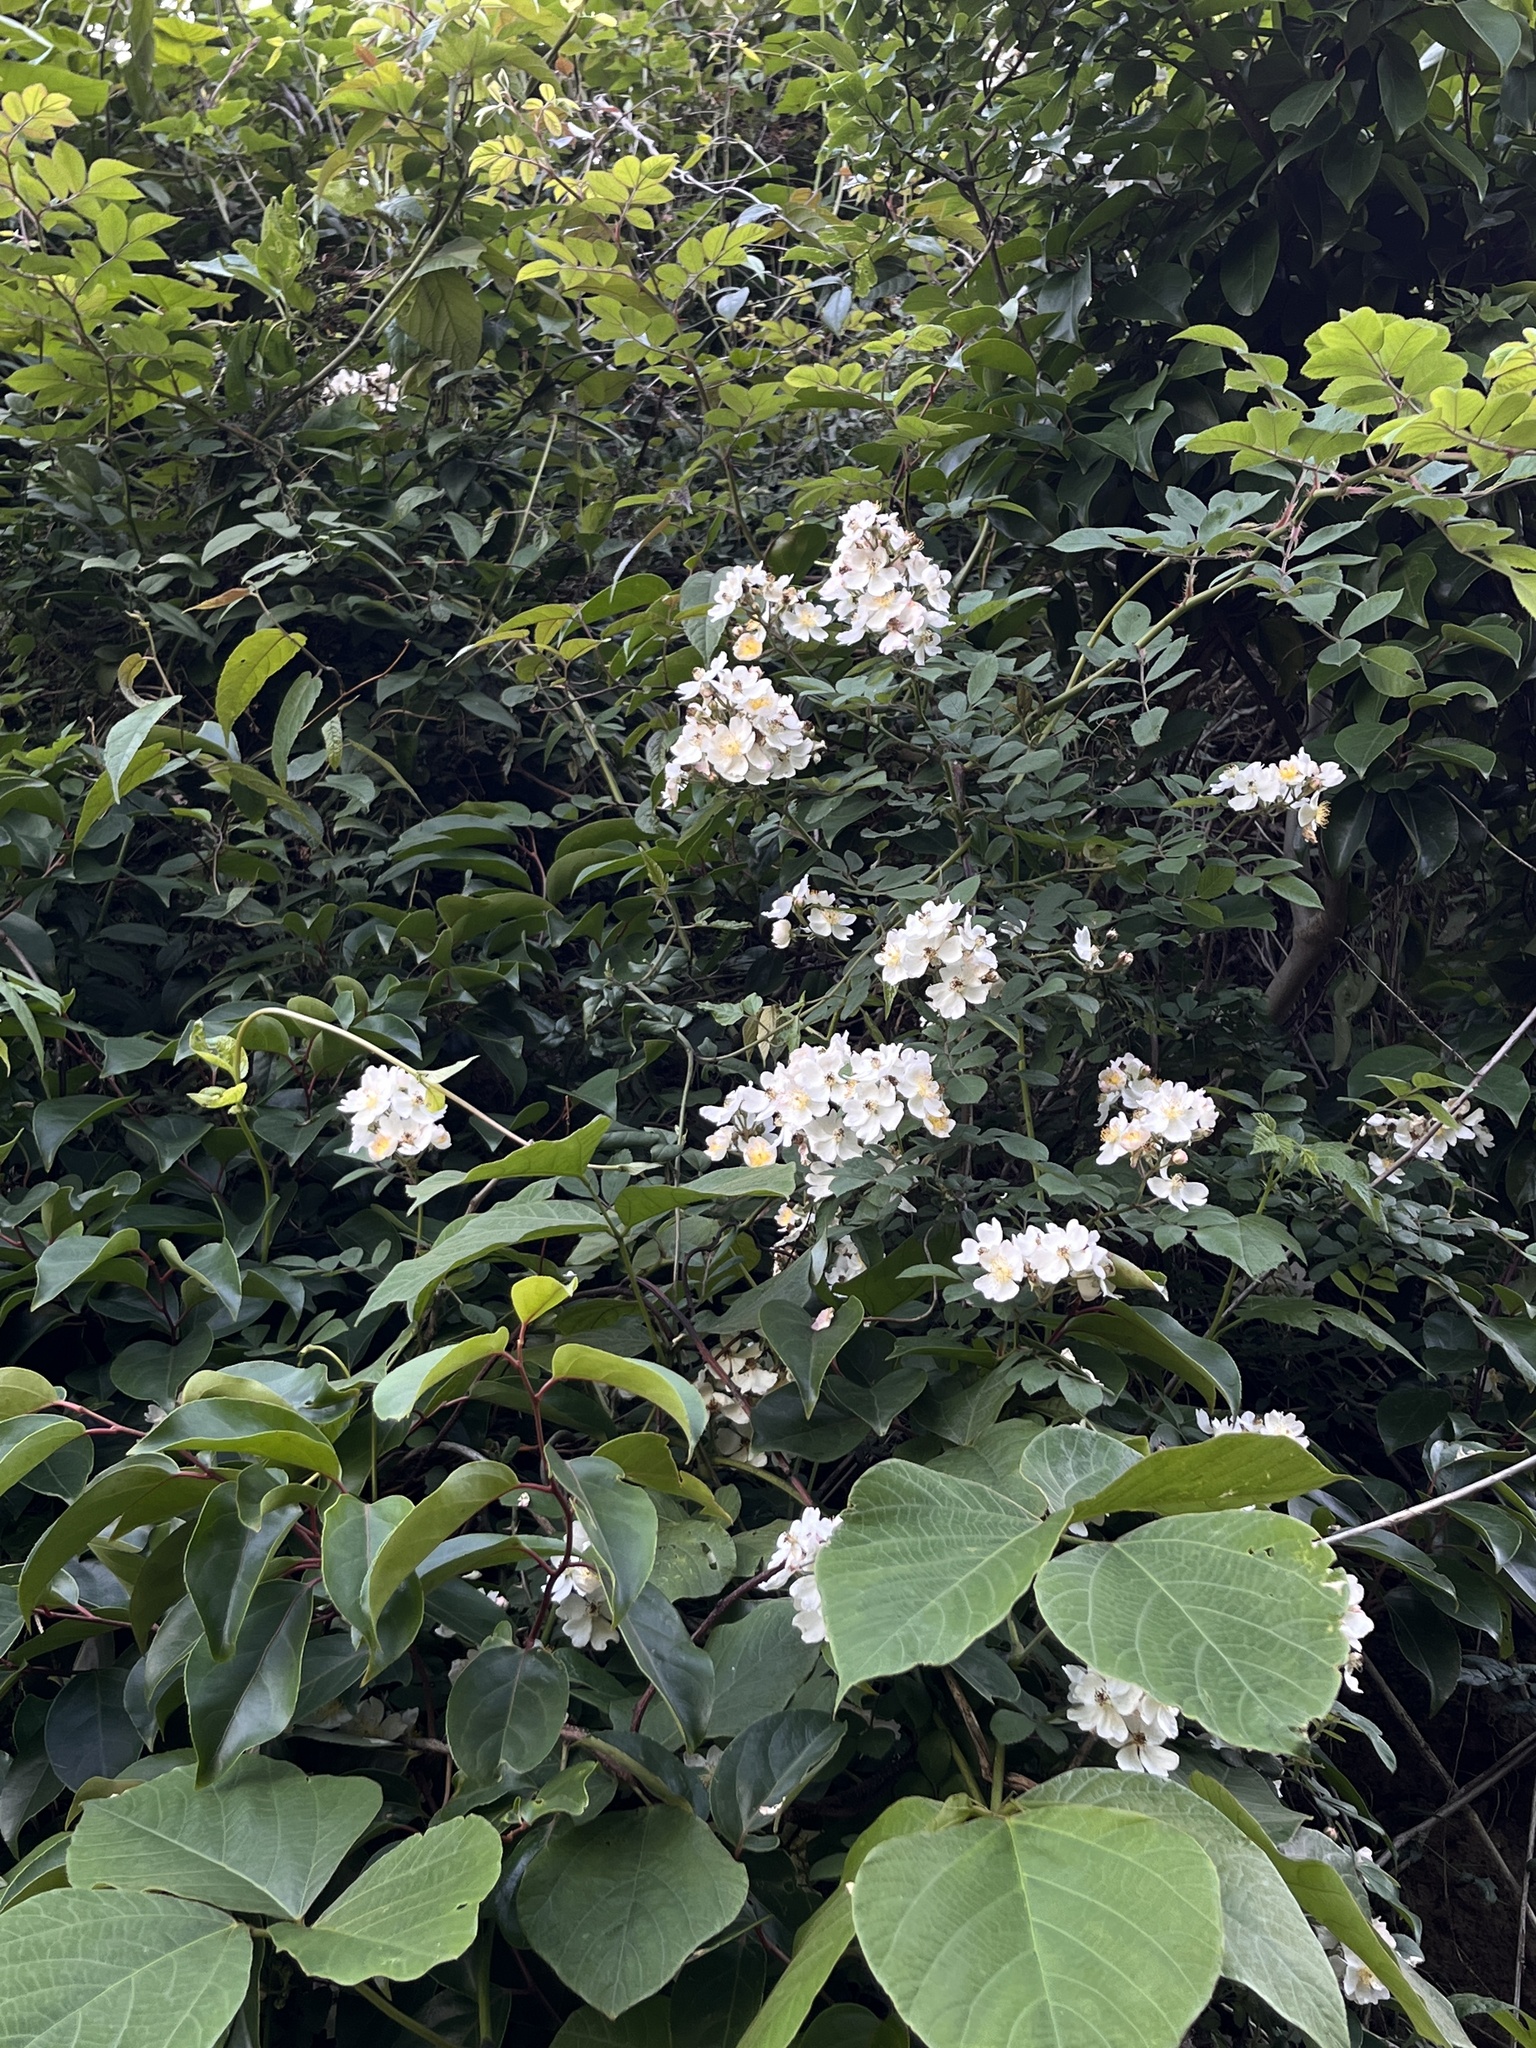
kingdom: Plantae
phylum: Tracheophyta
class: Magnoliopsida
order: Rosales
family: Rosaceae
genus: Rosa
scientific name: Rosa multiflora
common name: Multiflora rose
